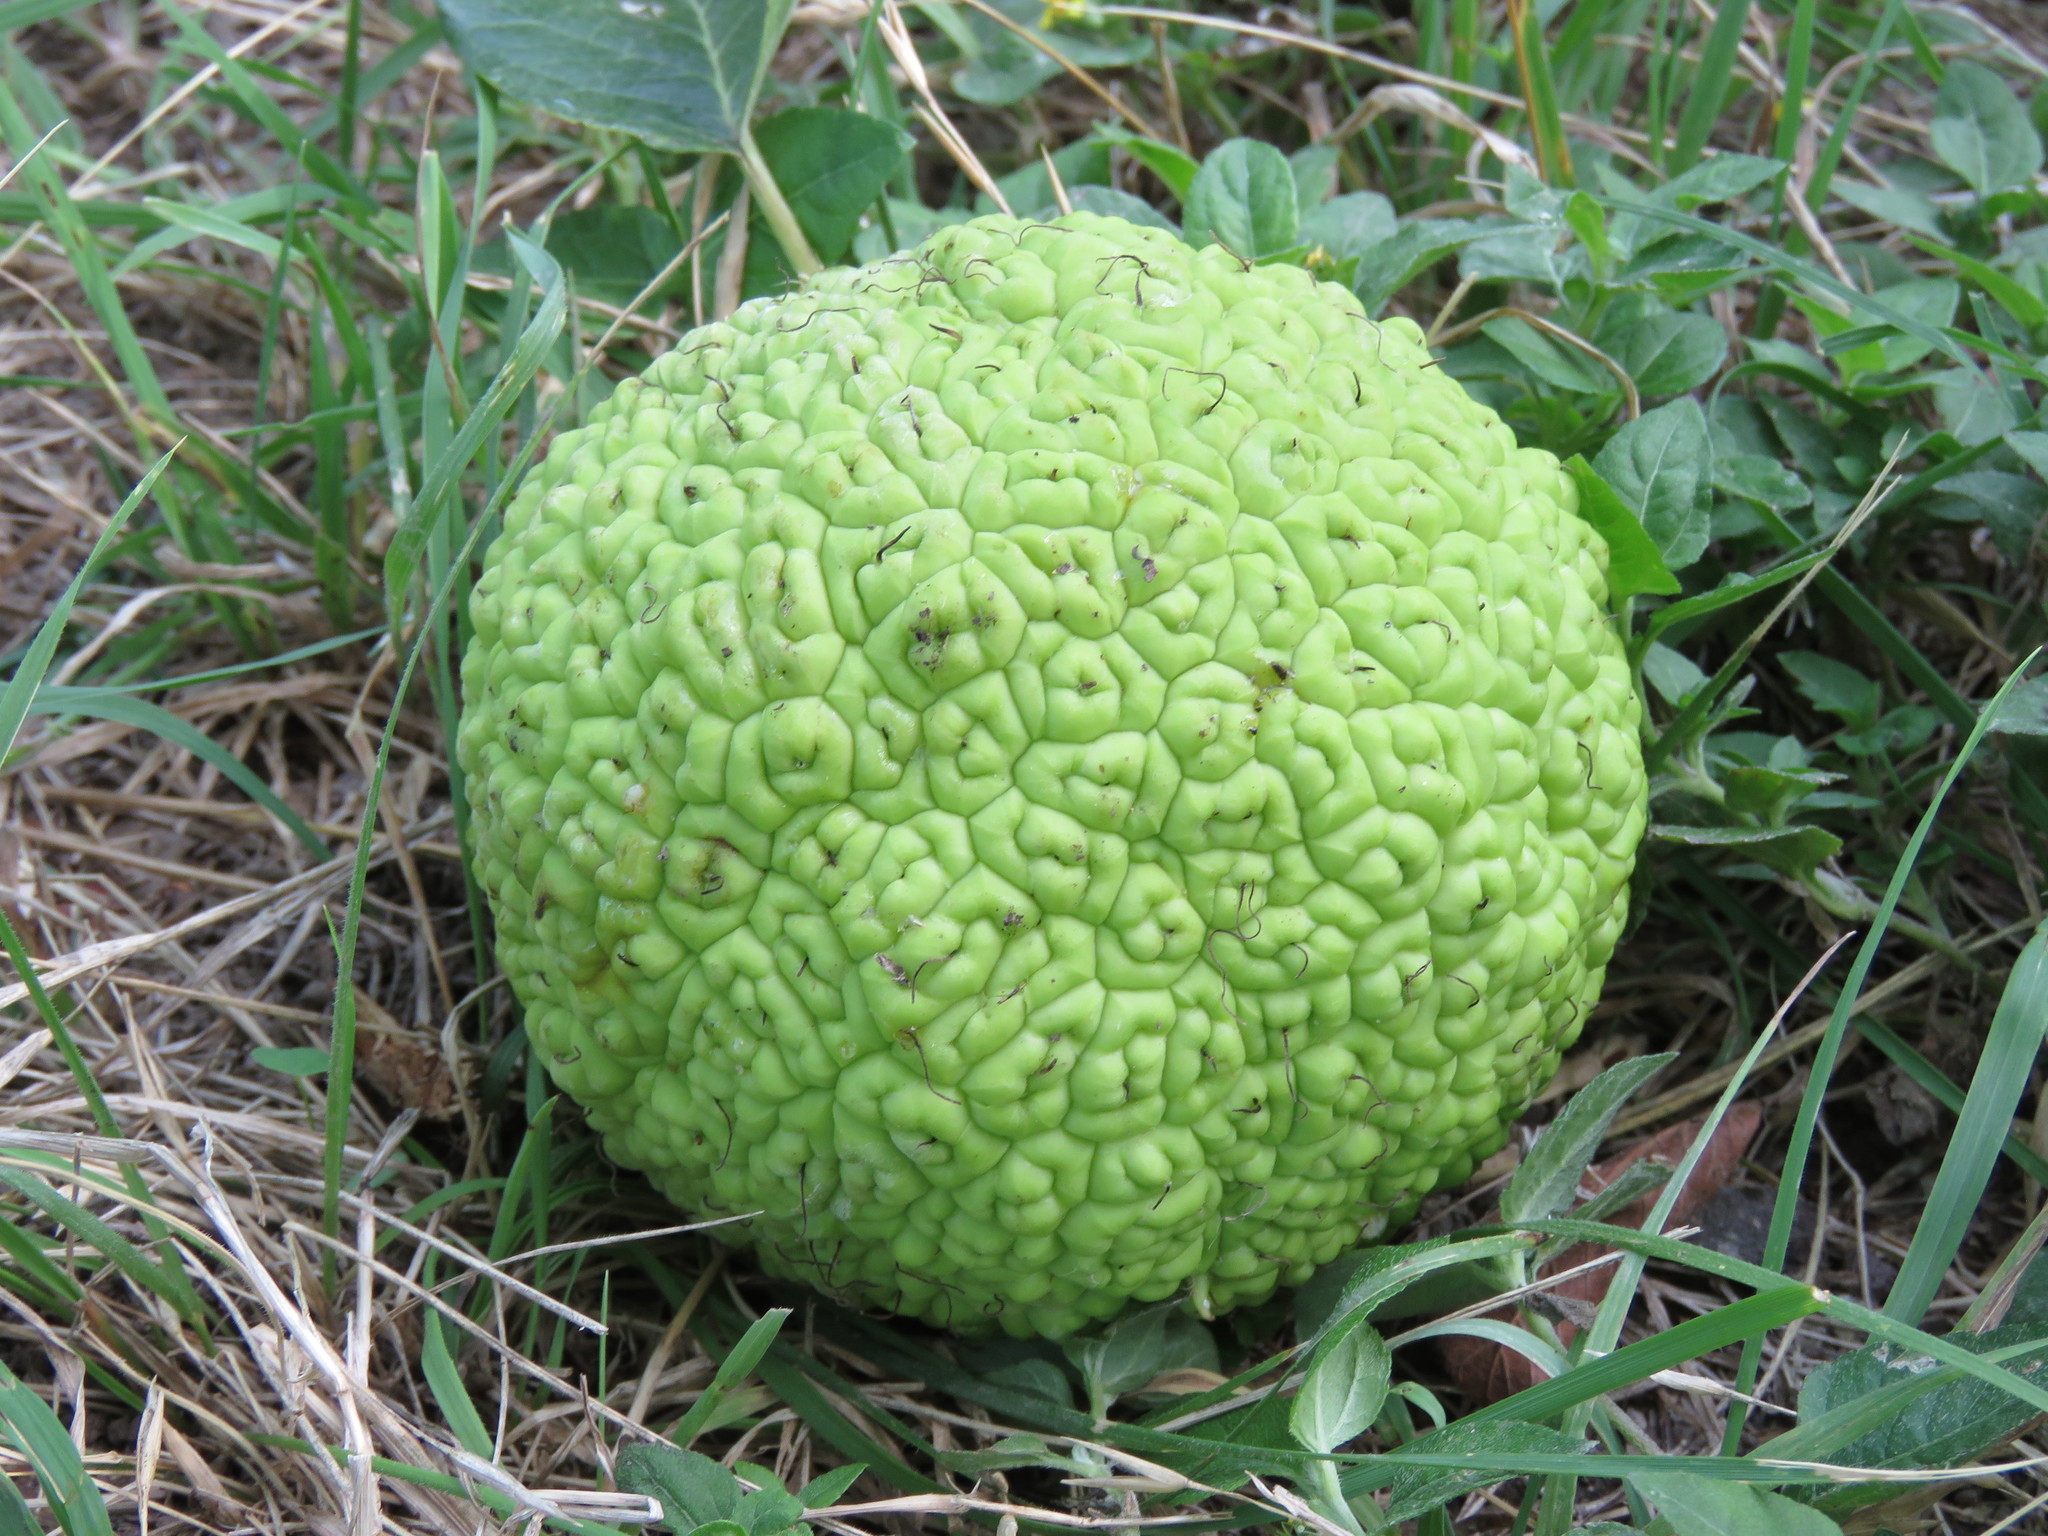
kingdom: Plantae
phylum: Tracheophyta
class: Magnoliopsida
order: Rosales
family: Moraceae
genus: Maclura
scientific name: Maclura pomifera
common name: Osage-orange
